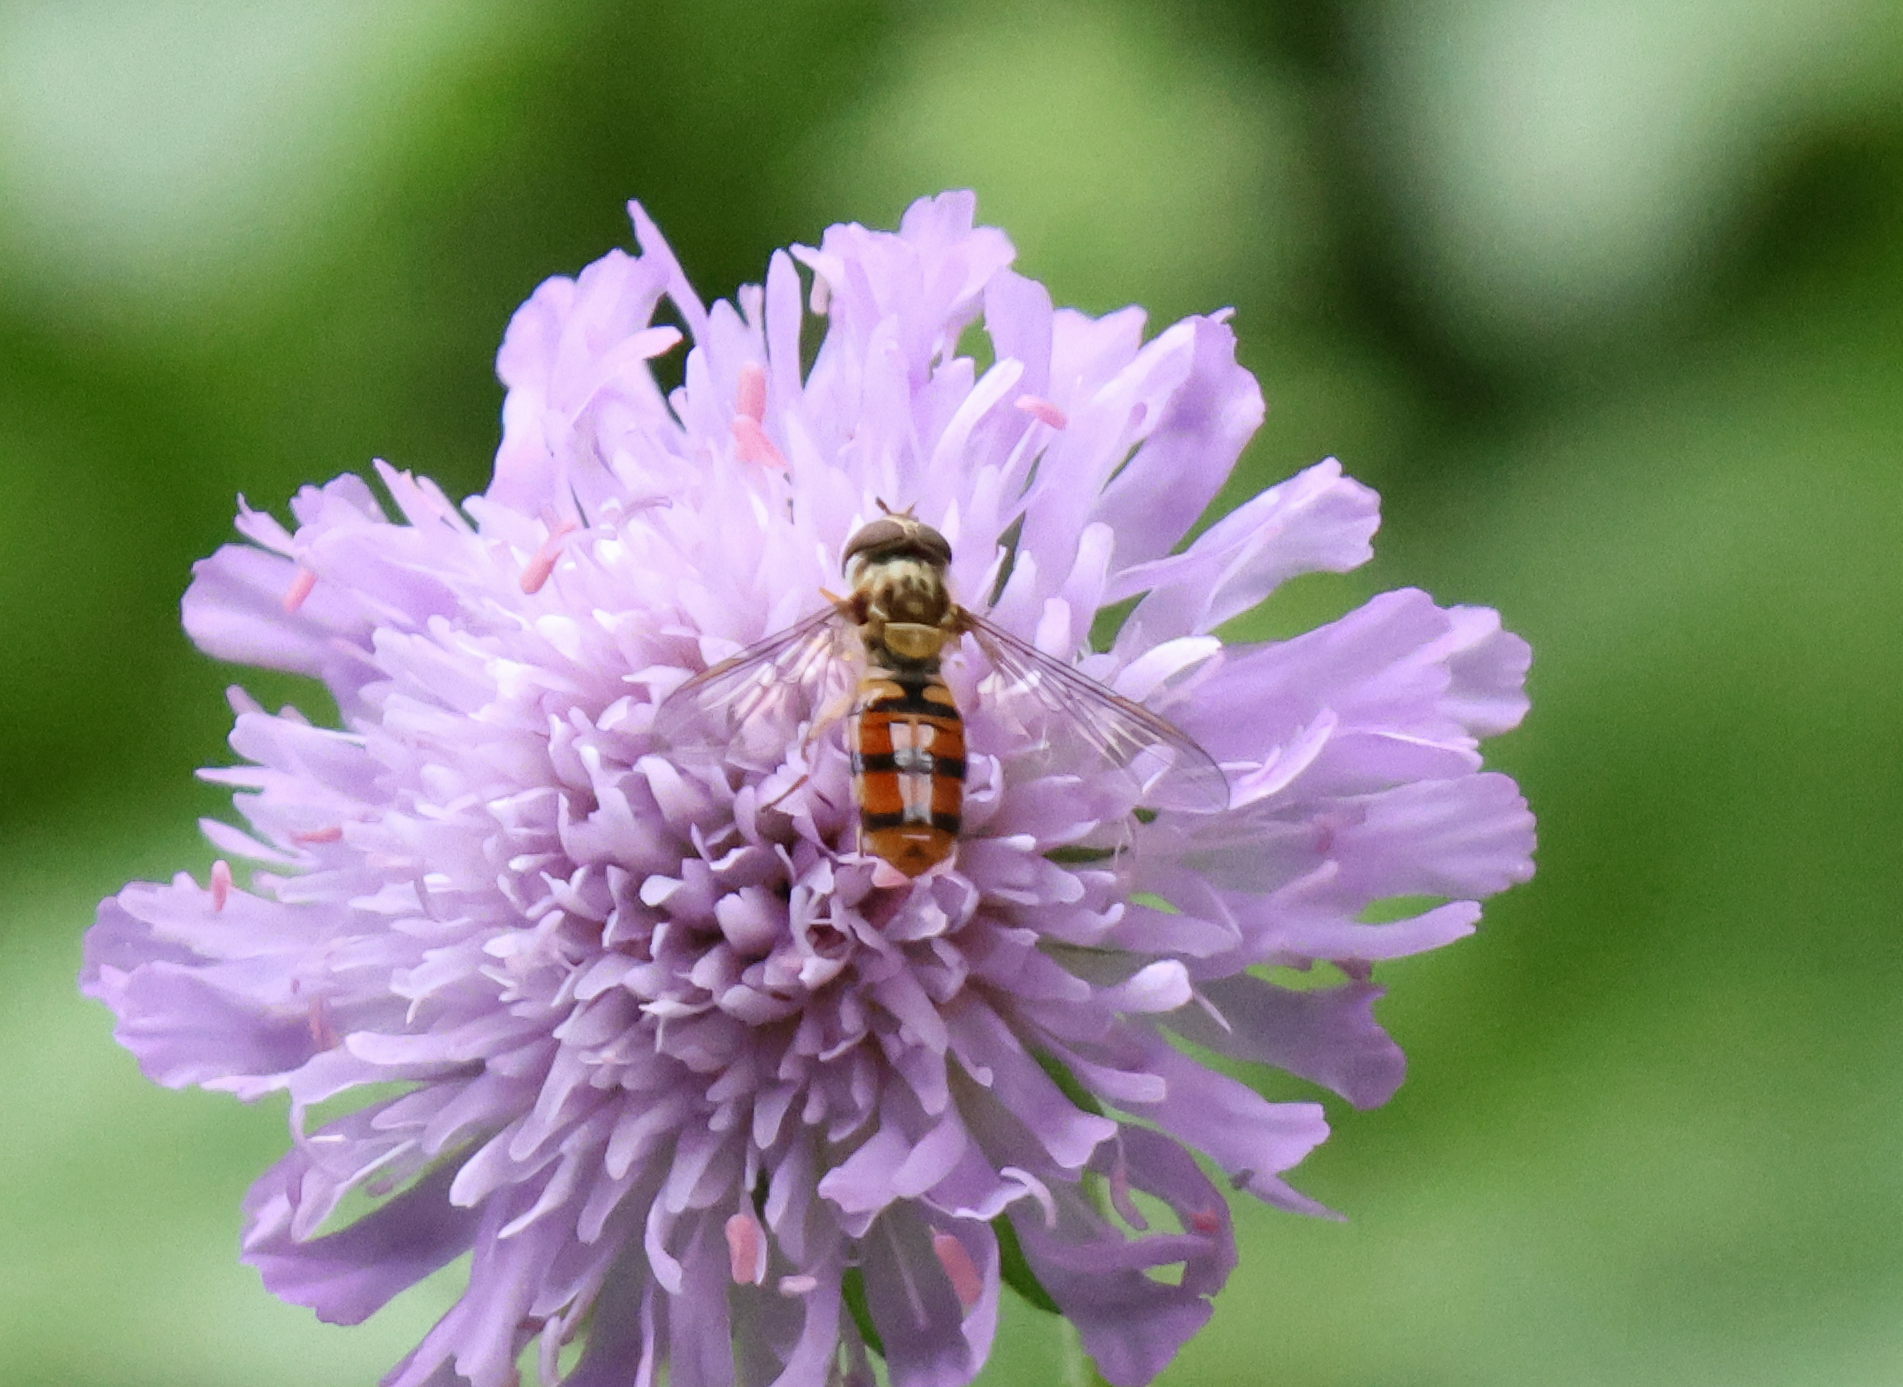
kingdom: Animalia
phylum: Arthropoda
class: Insecta
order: Diptera
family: Syrphidae
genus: Episyrphus
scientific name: Episyrphus balteatus
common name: Marmalade hoverfly
